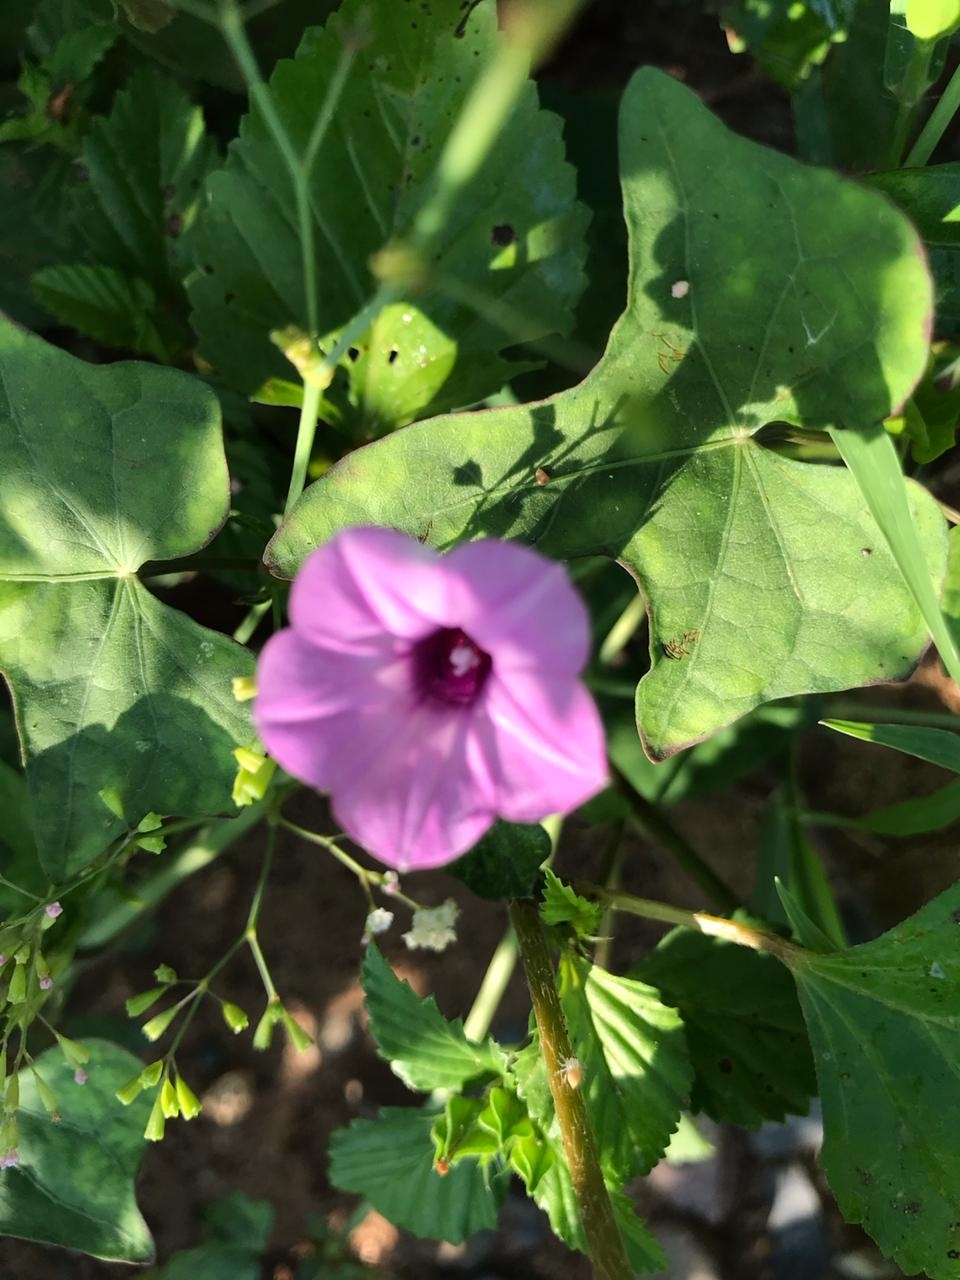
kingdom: Plantae
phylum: Tracheophyta
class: Magnoliopsida
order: Solanales
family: Convolvulaceae
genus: Ipomoea
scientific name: Ipomoea triloba
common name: Little-bell
